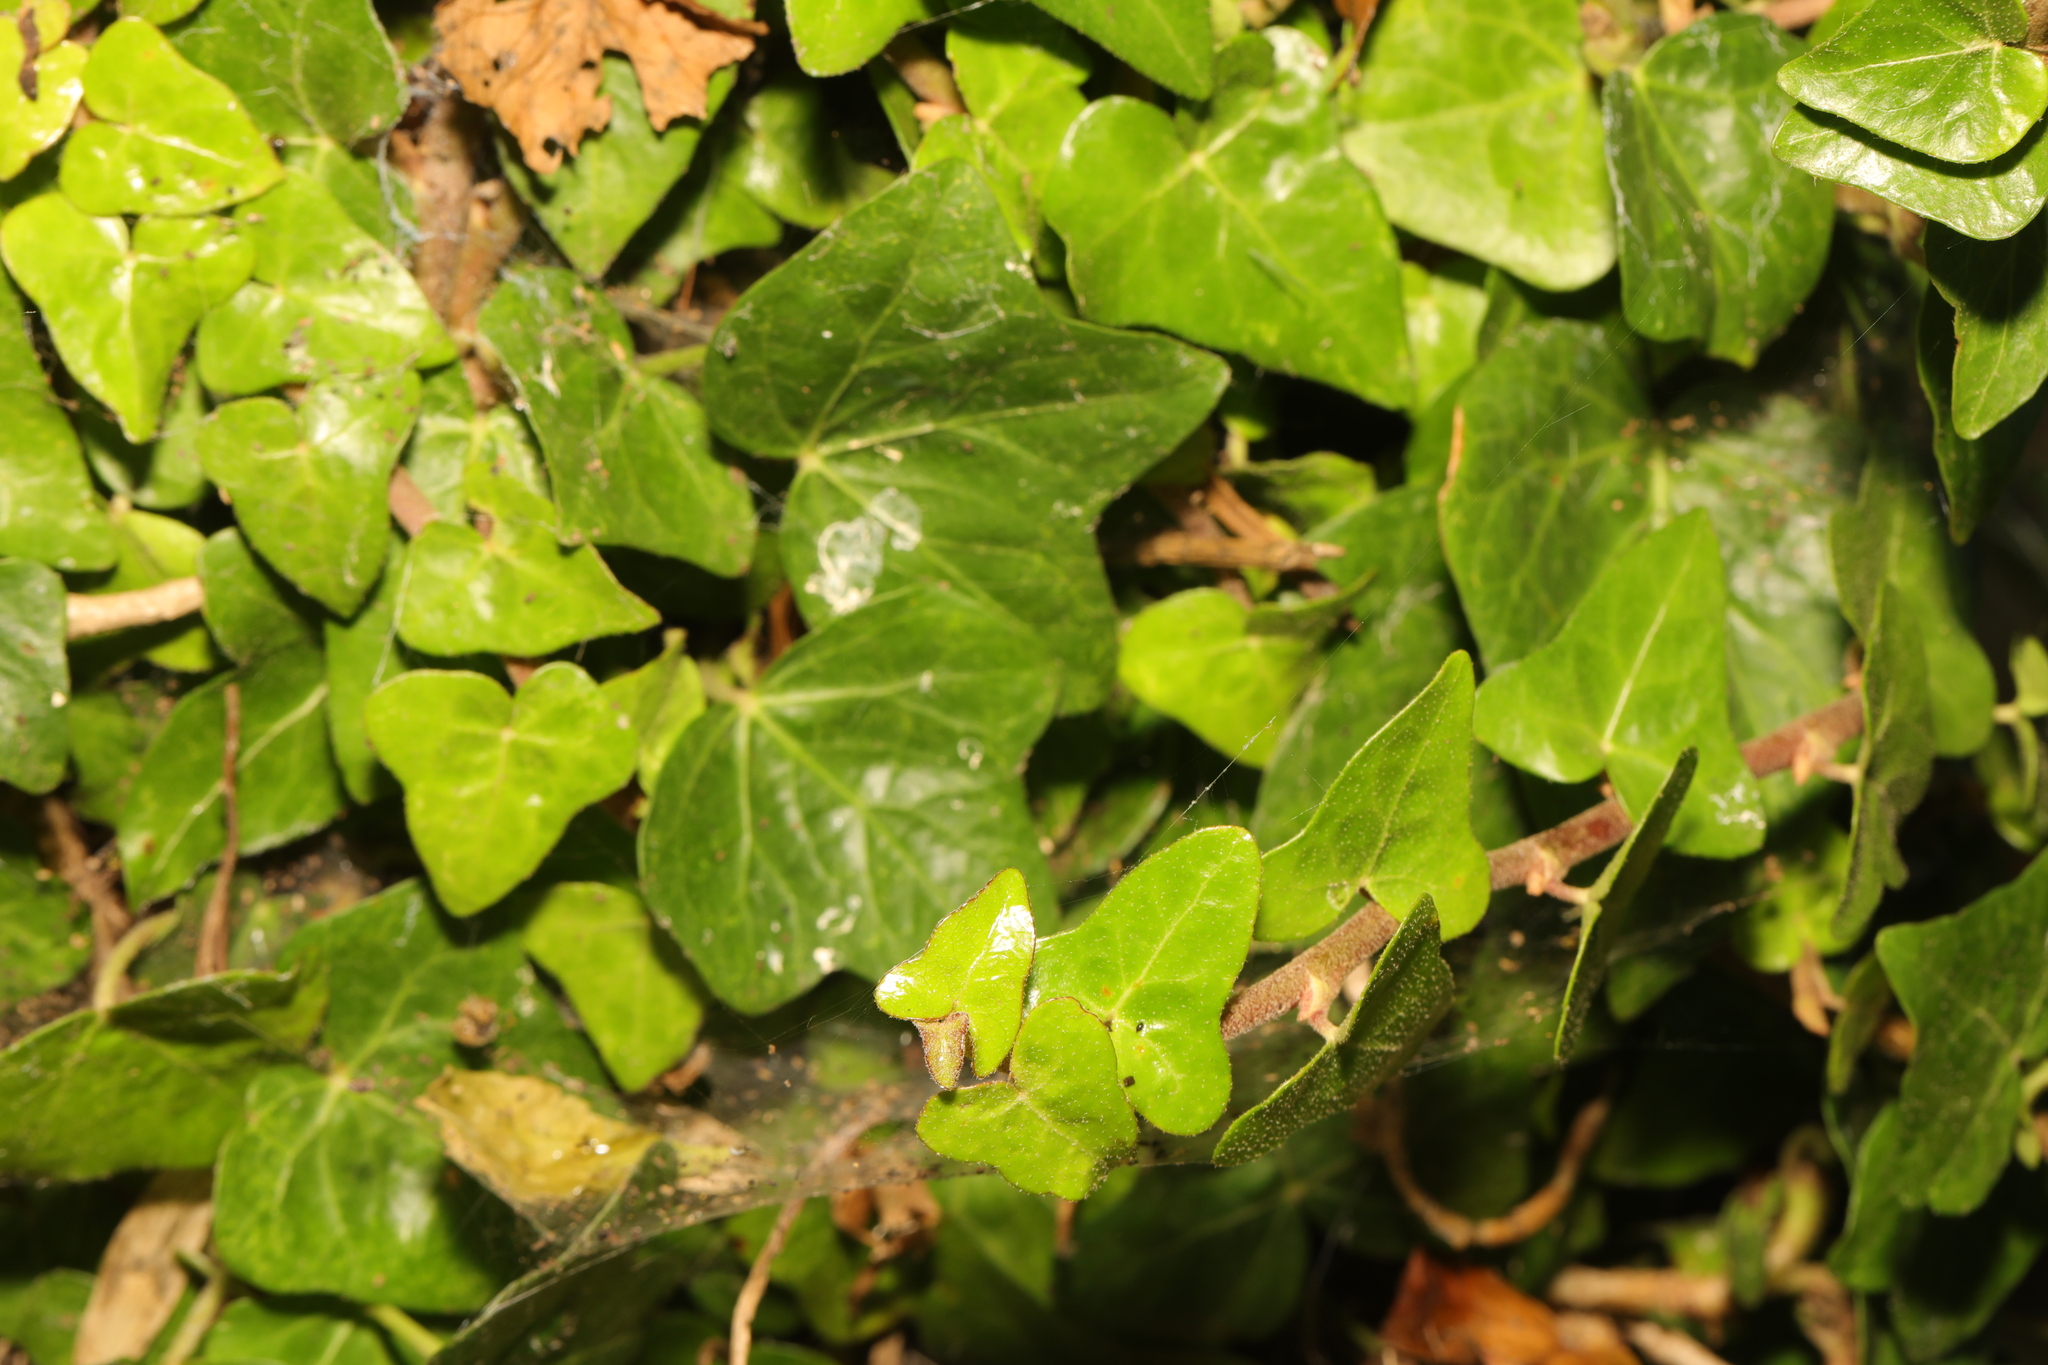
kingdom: Plantae
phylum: Tracheophyta
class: Magnoliopsida
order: Apiales
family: Araliaceae
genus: Hedera
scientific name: Hedera helix
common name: Ivy
